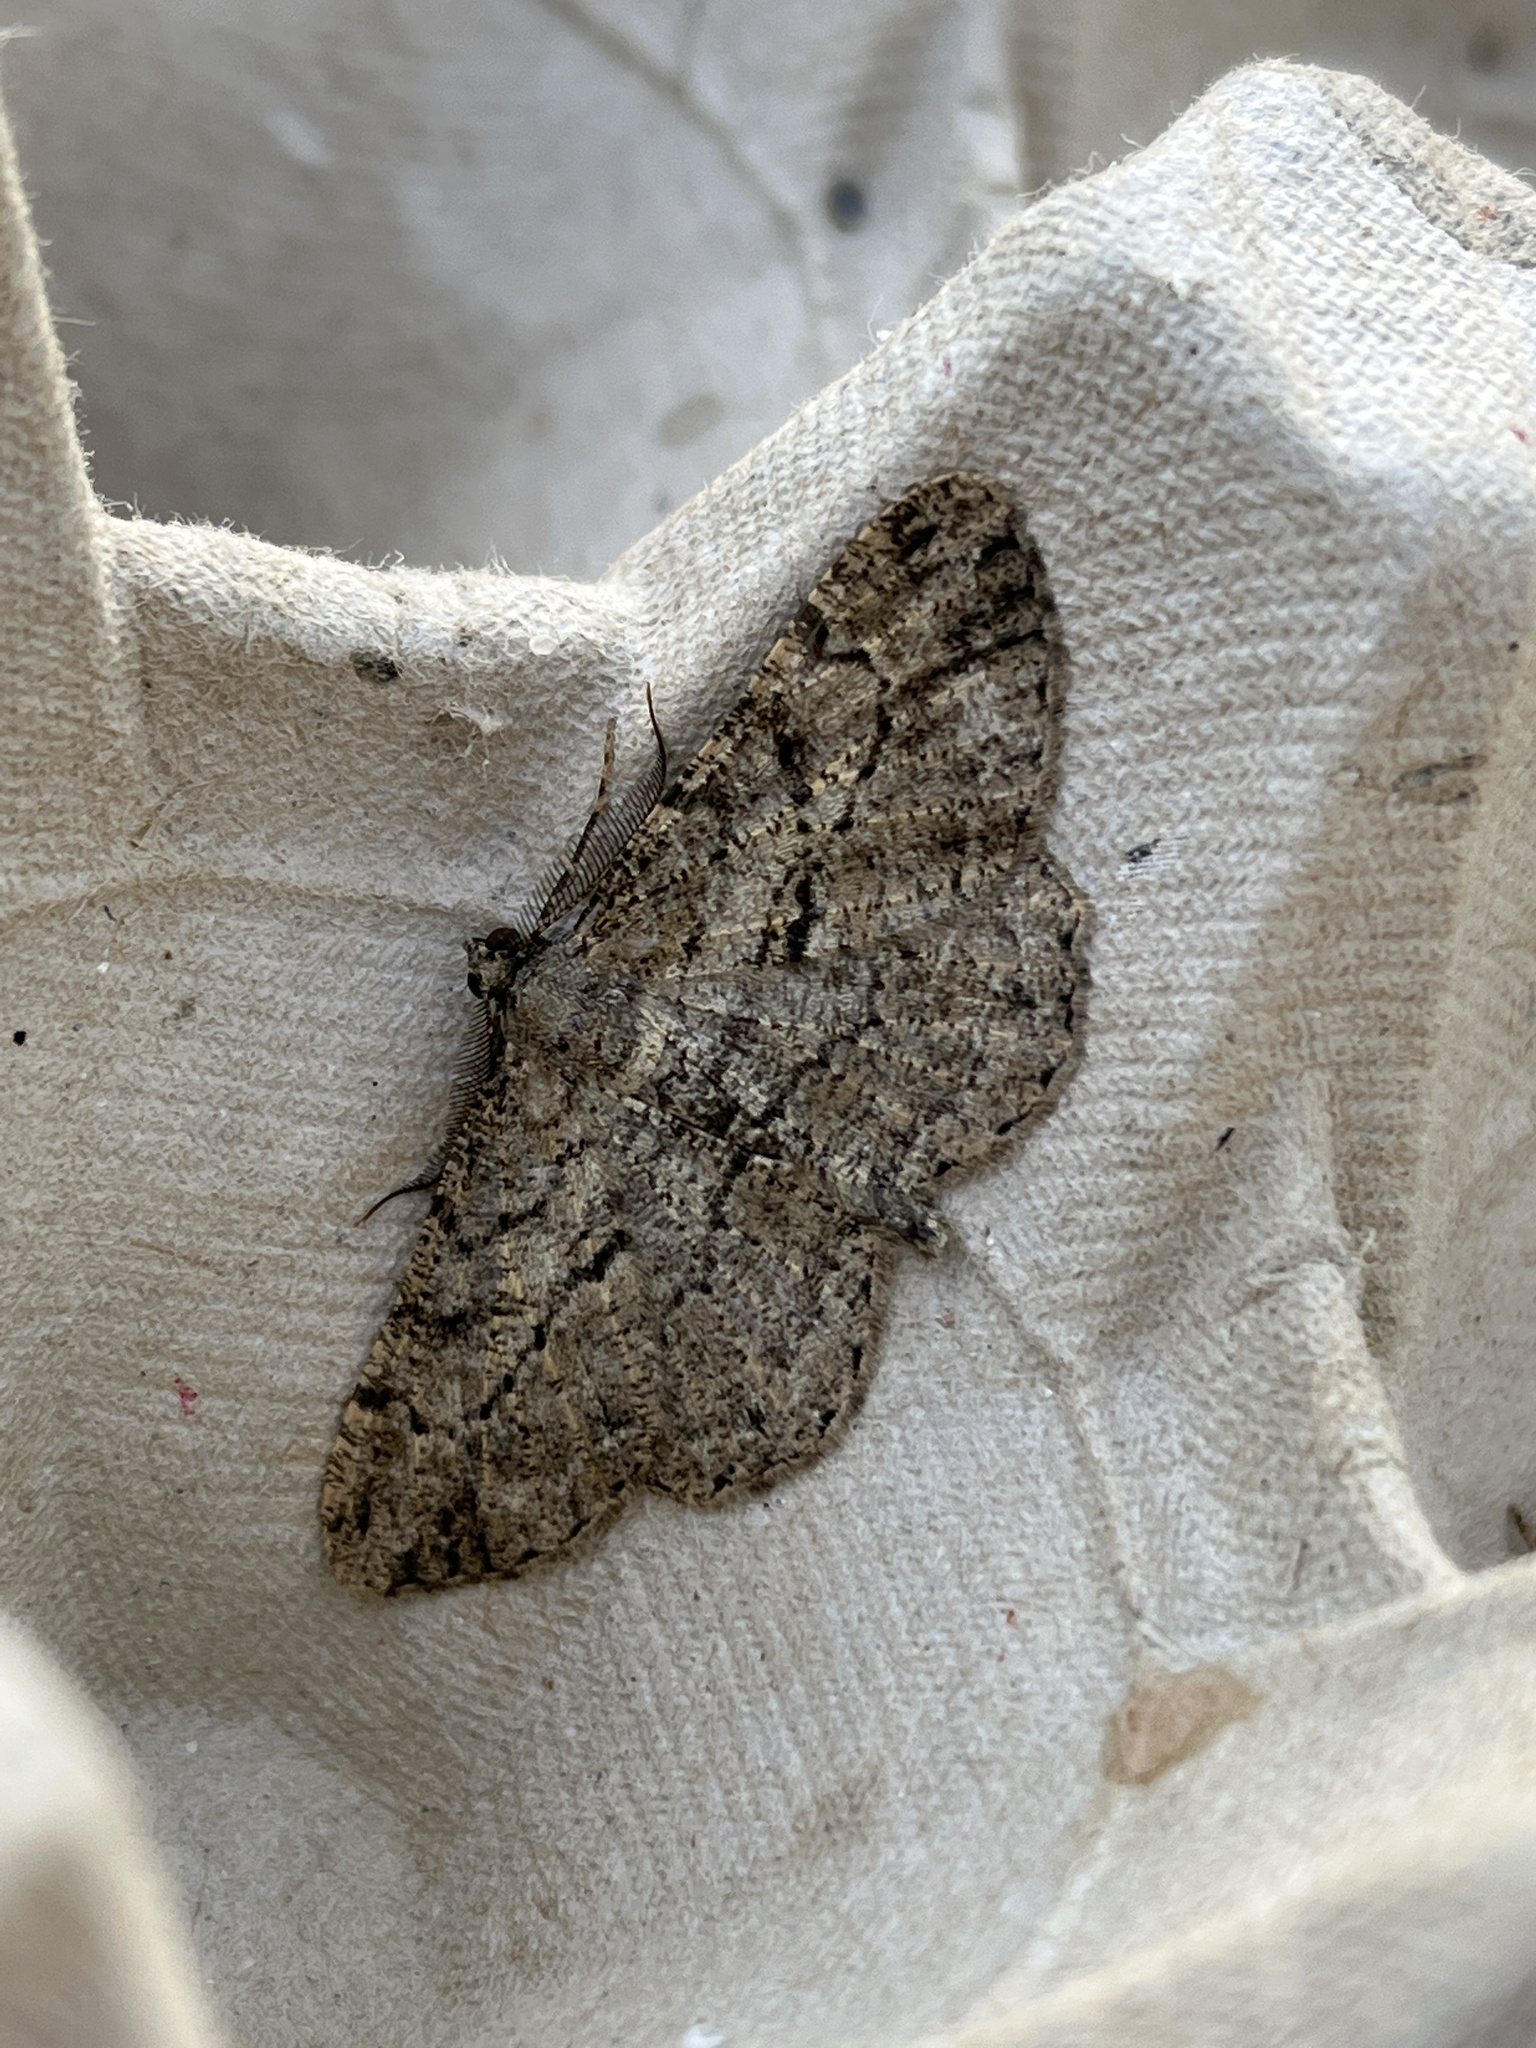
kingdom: Animalia
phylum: Arthropoda
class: Insecta
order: Lepidoptera
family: Geometridae
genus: Peribatodes
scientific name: Peribatodes rhomboidaria
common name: Willow beauty
